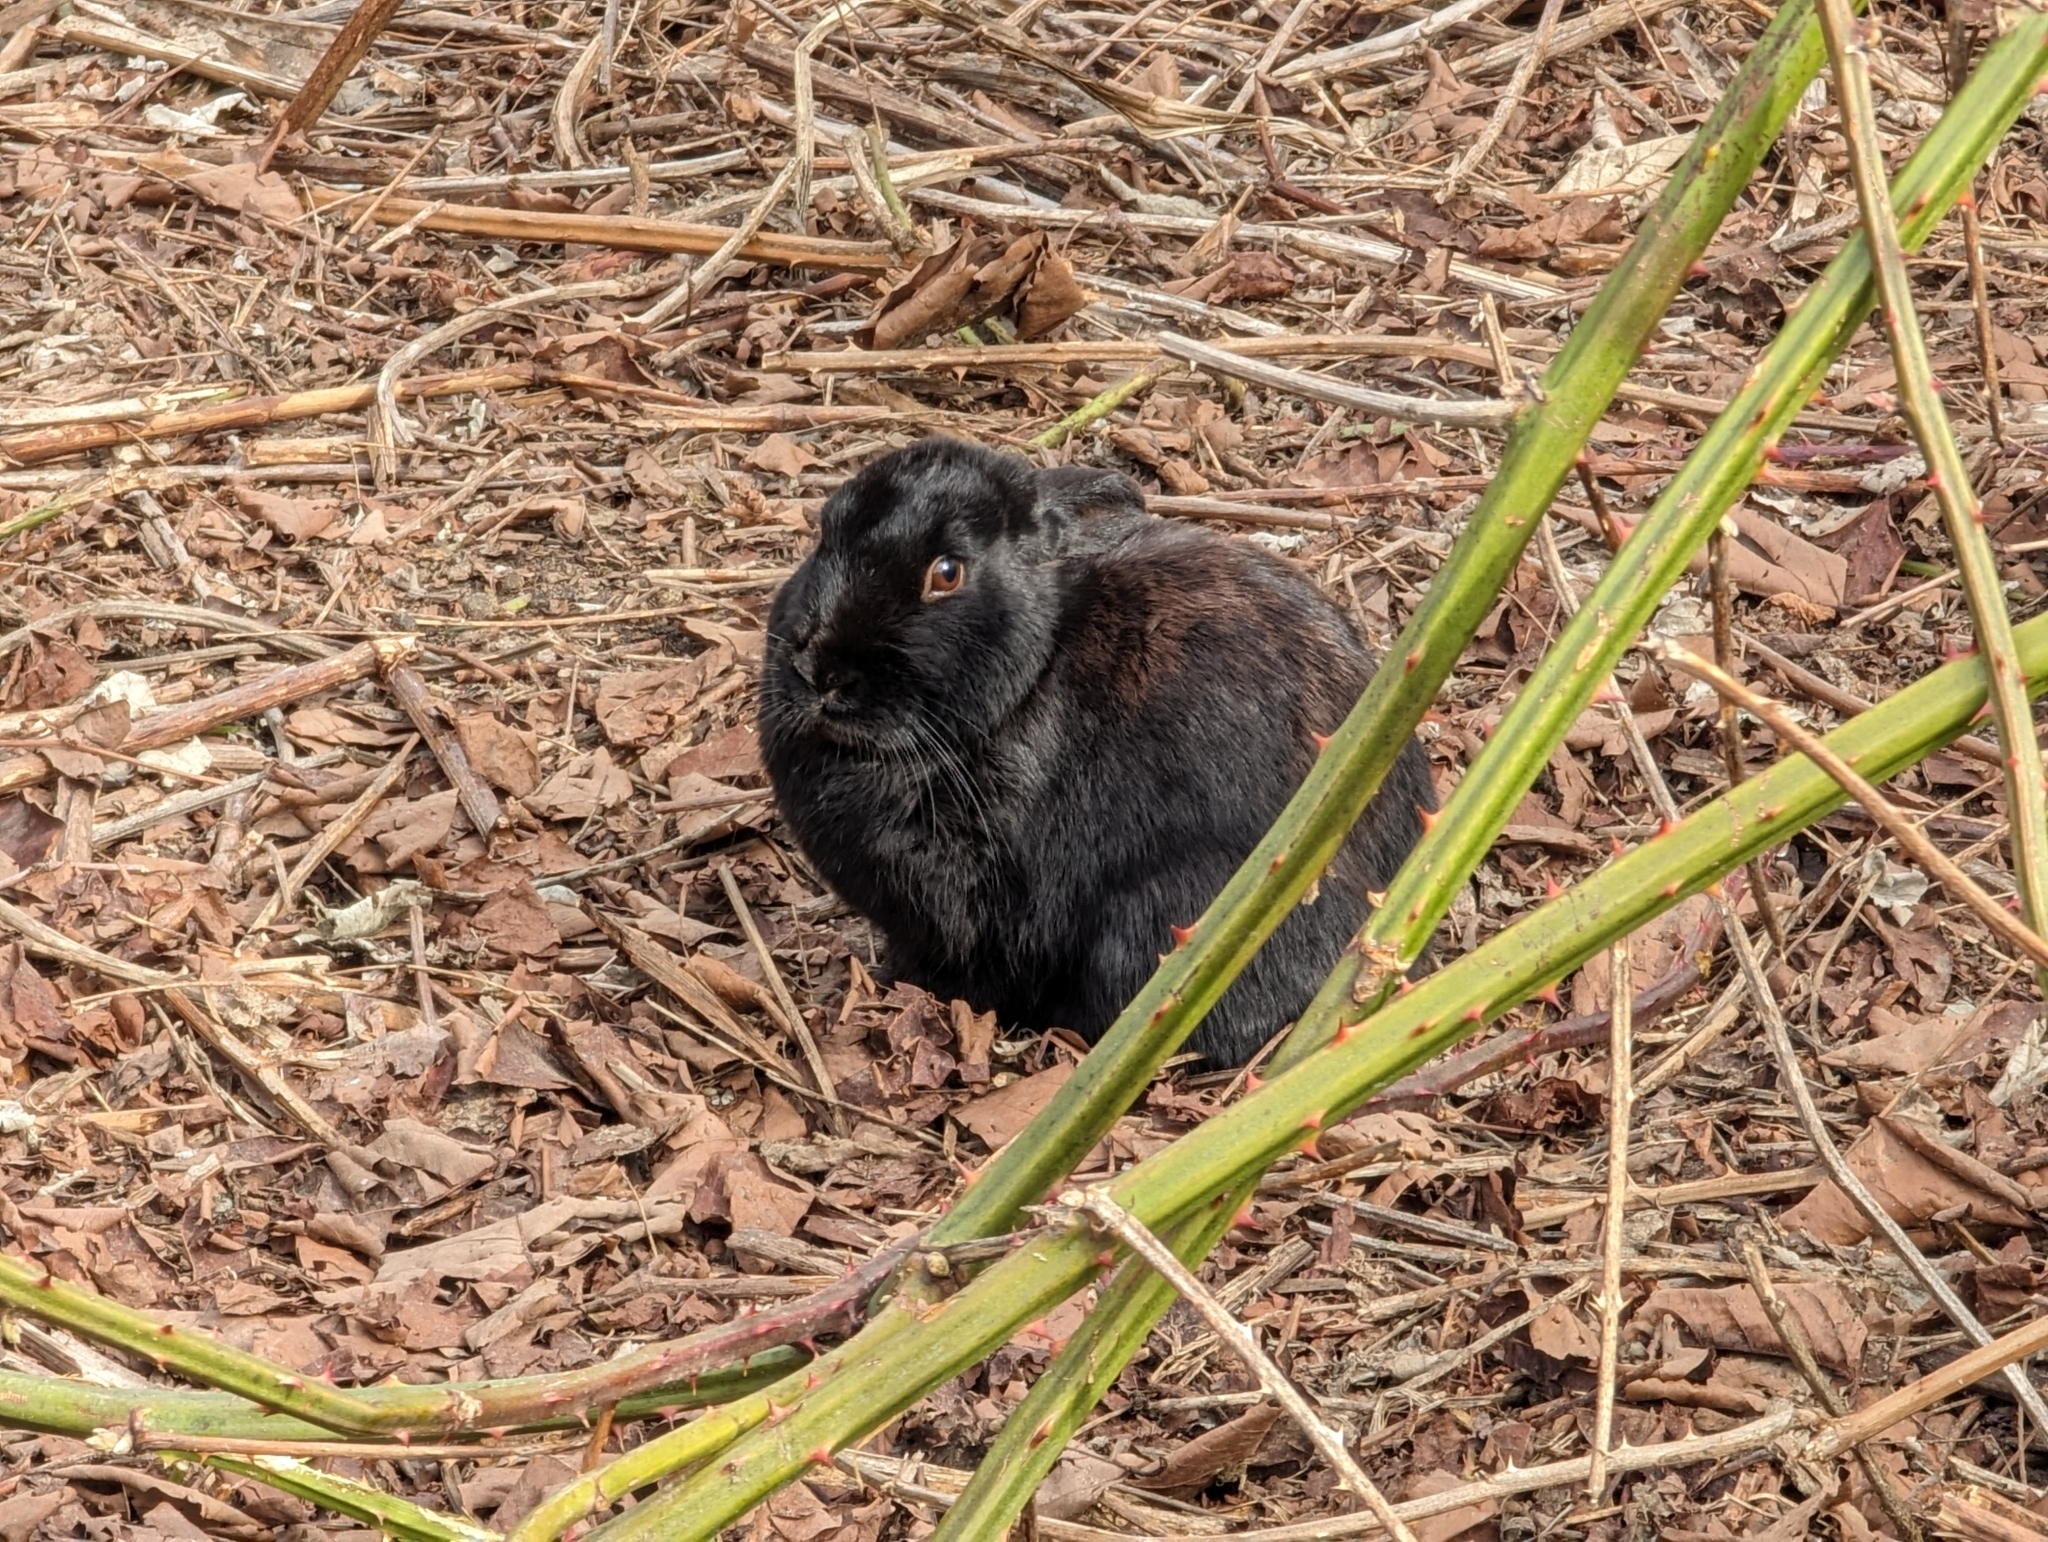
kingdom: Animalia
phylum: Chordata
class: Mammalia
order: Lagomorpha
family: Leporidae
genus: Oryctolagus
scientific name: Oryctolagus cuniculus
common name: European rabbit
